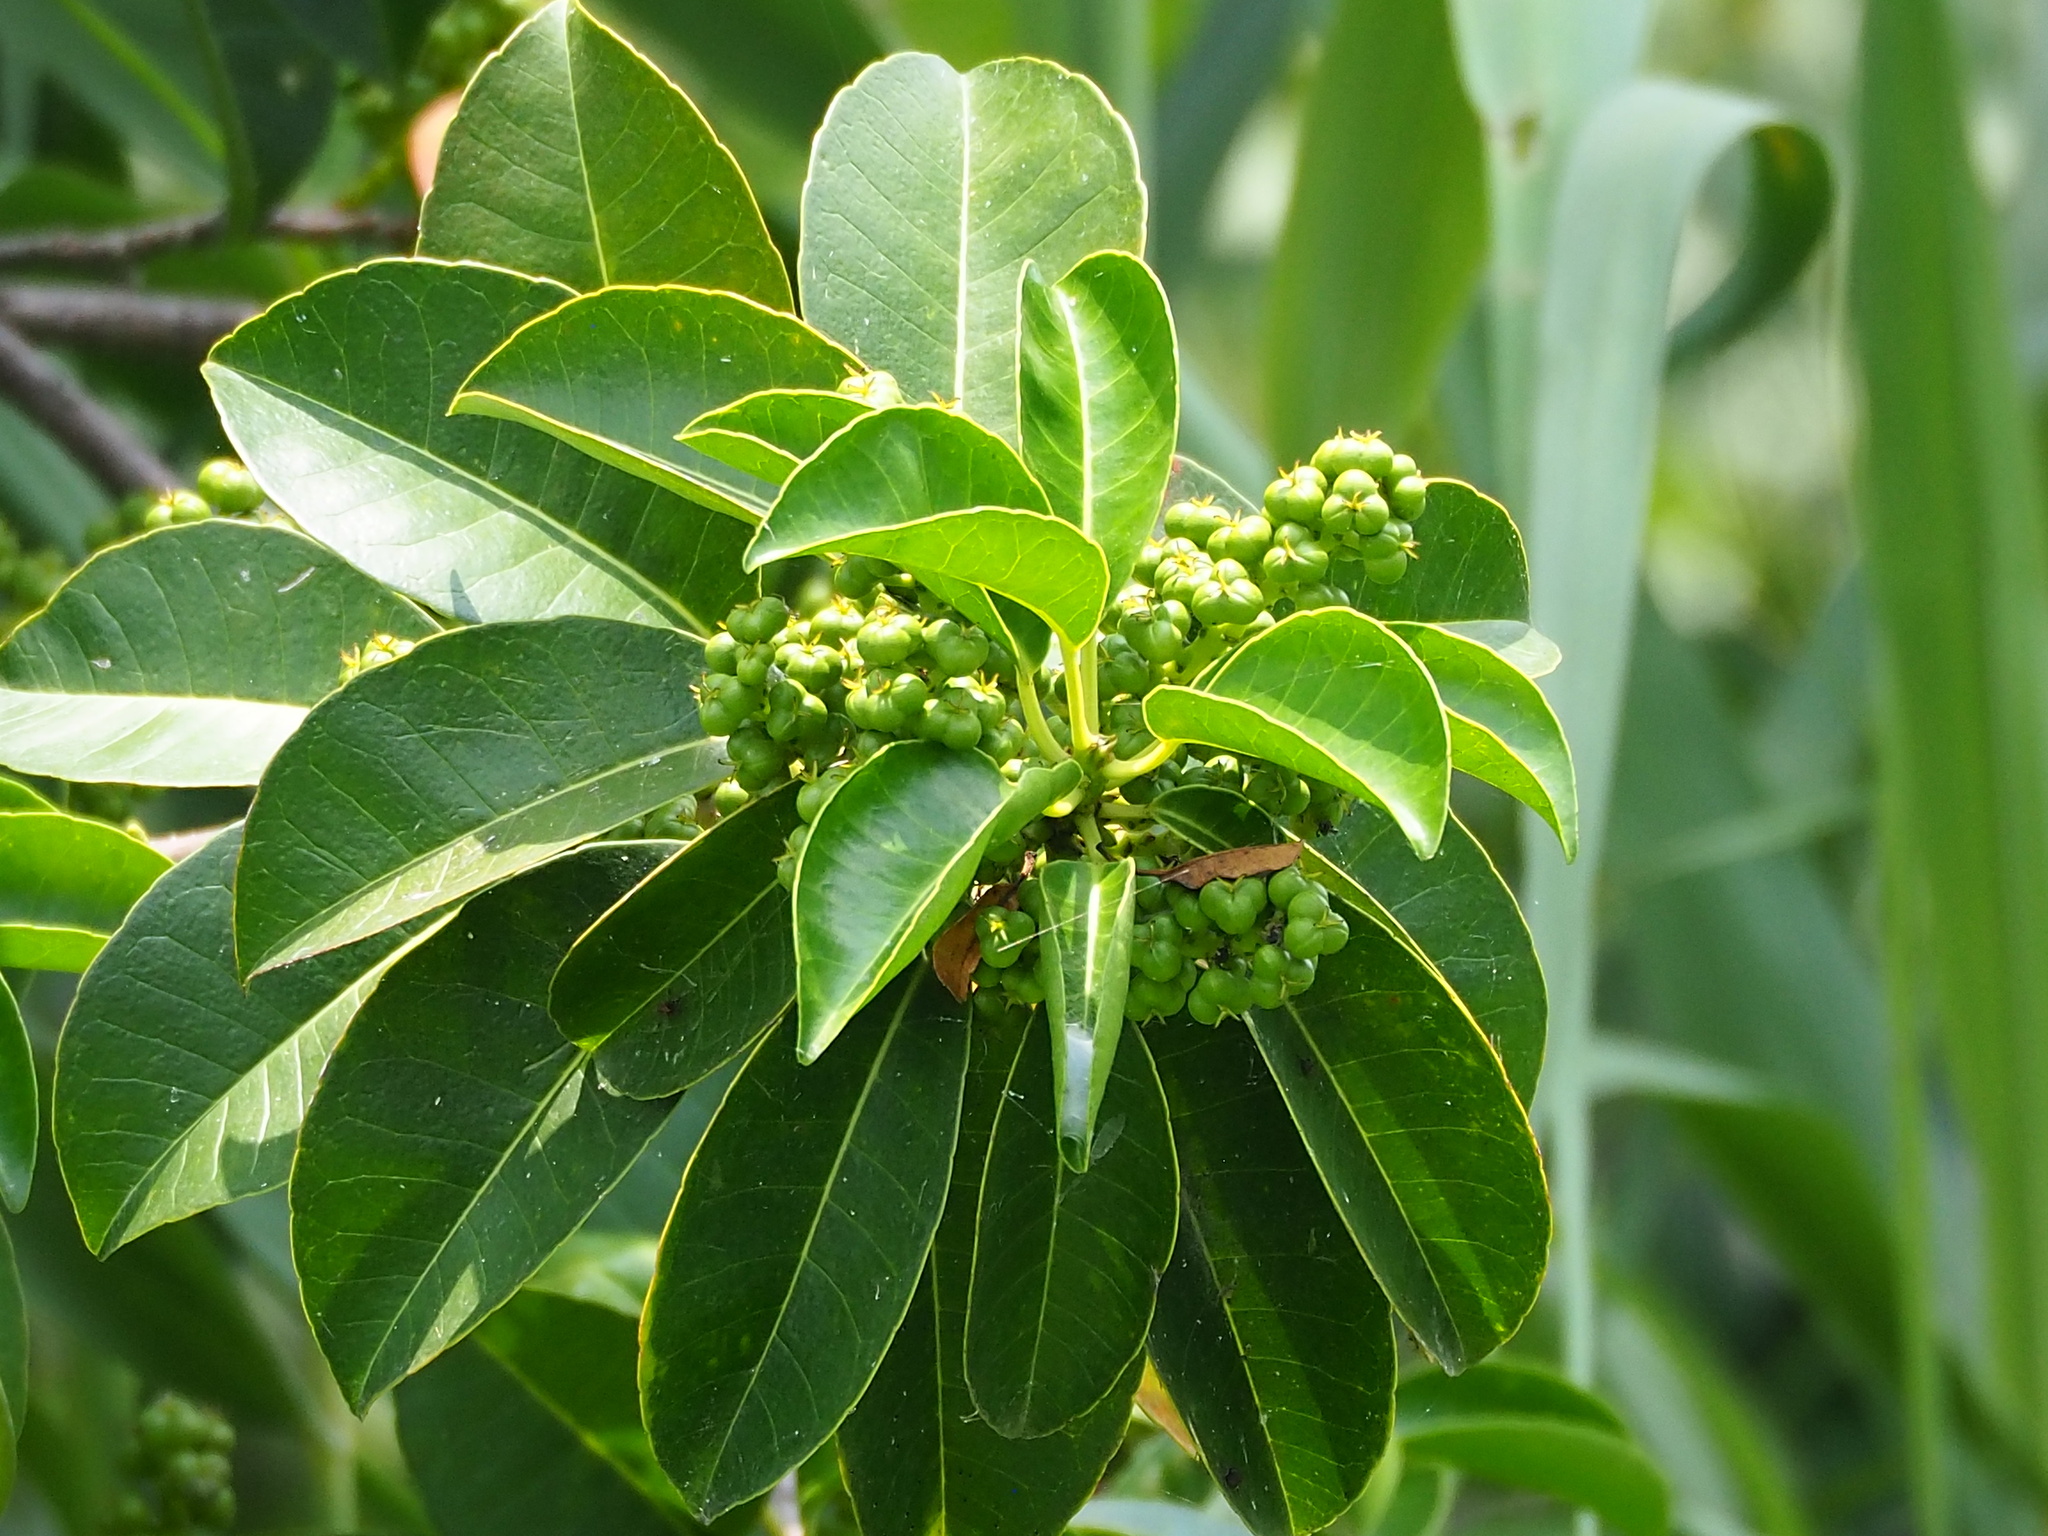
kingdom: Plantae
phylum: Tracheophyta
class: Magnoliopsida
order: Malpighiales
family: Euphorbiaceae
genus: Excoecaria
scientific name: Excoecaria agallocha
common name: River poisontree
